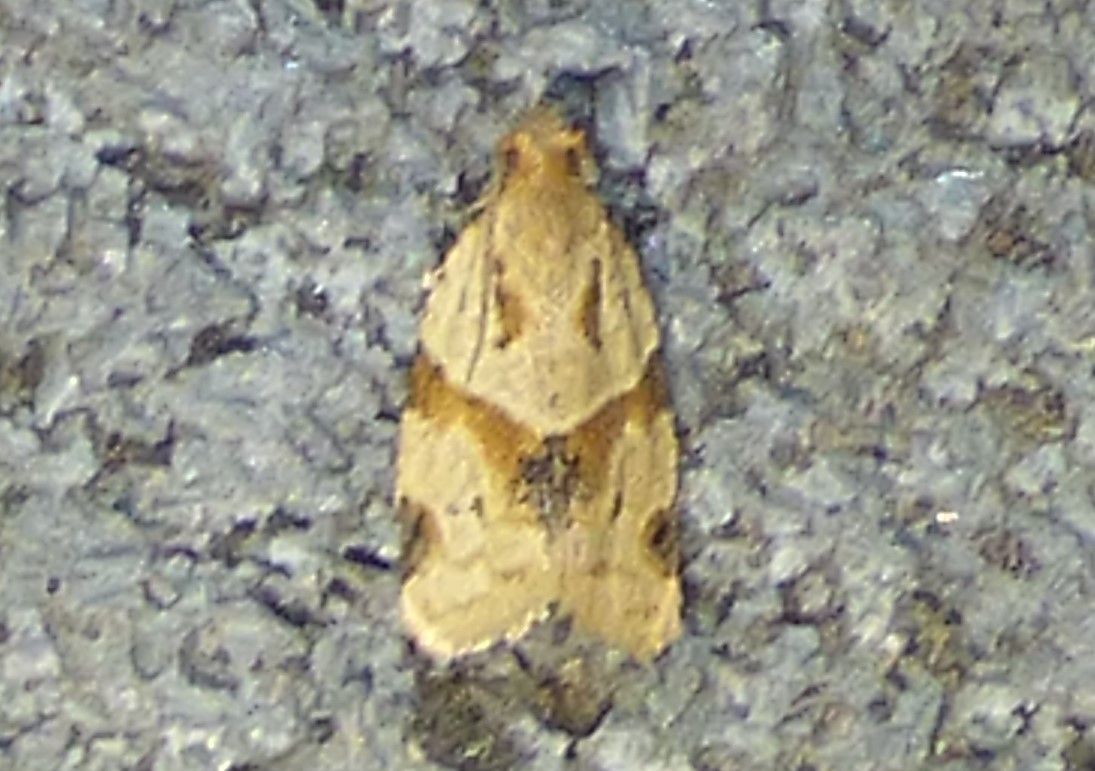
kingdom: Animalia
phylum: Arthropoda
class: Insecta
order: Lepidoptera
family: Tortricidae
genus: Clepsis
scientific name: Clepsis peritana
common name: Garden tortrix
